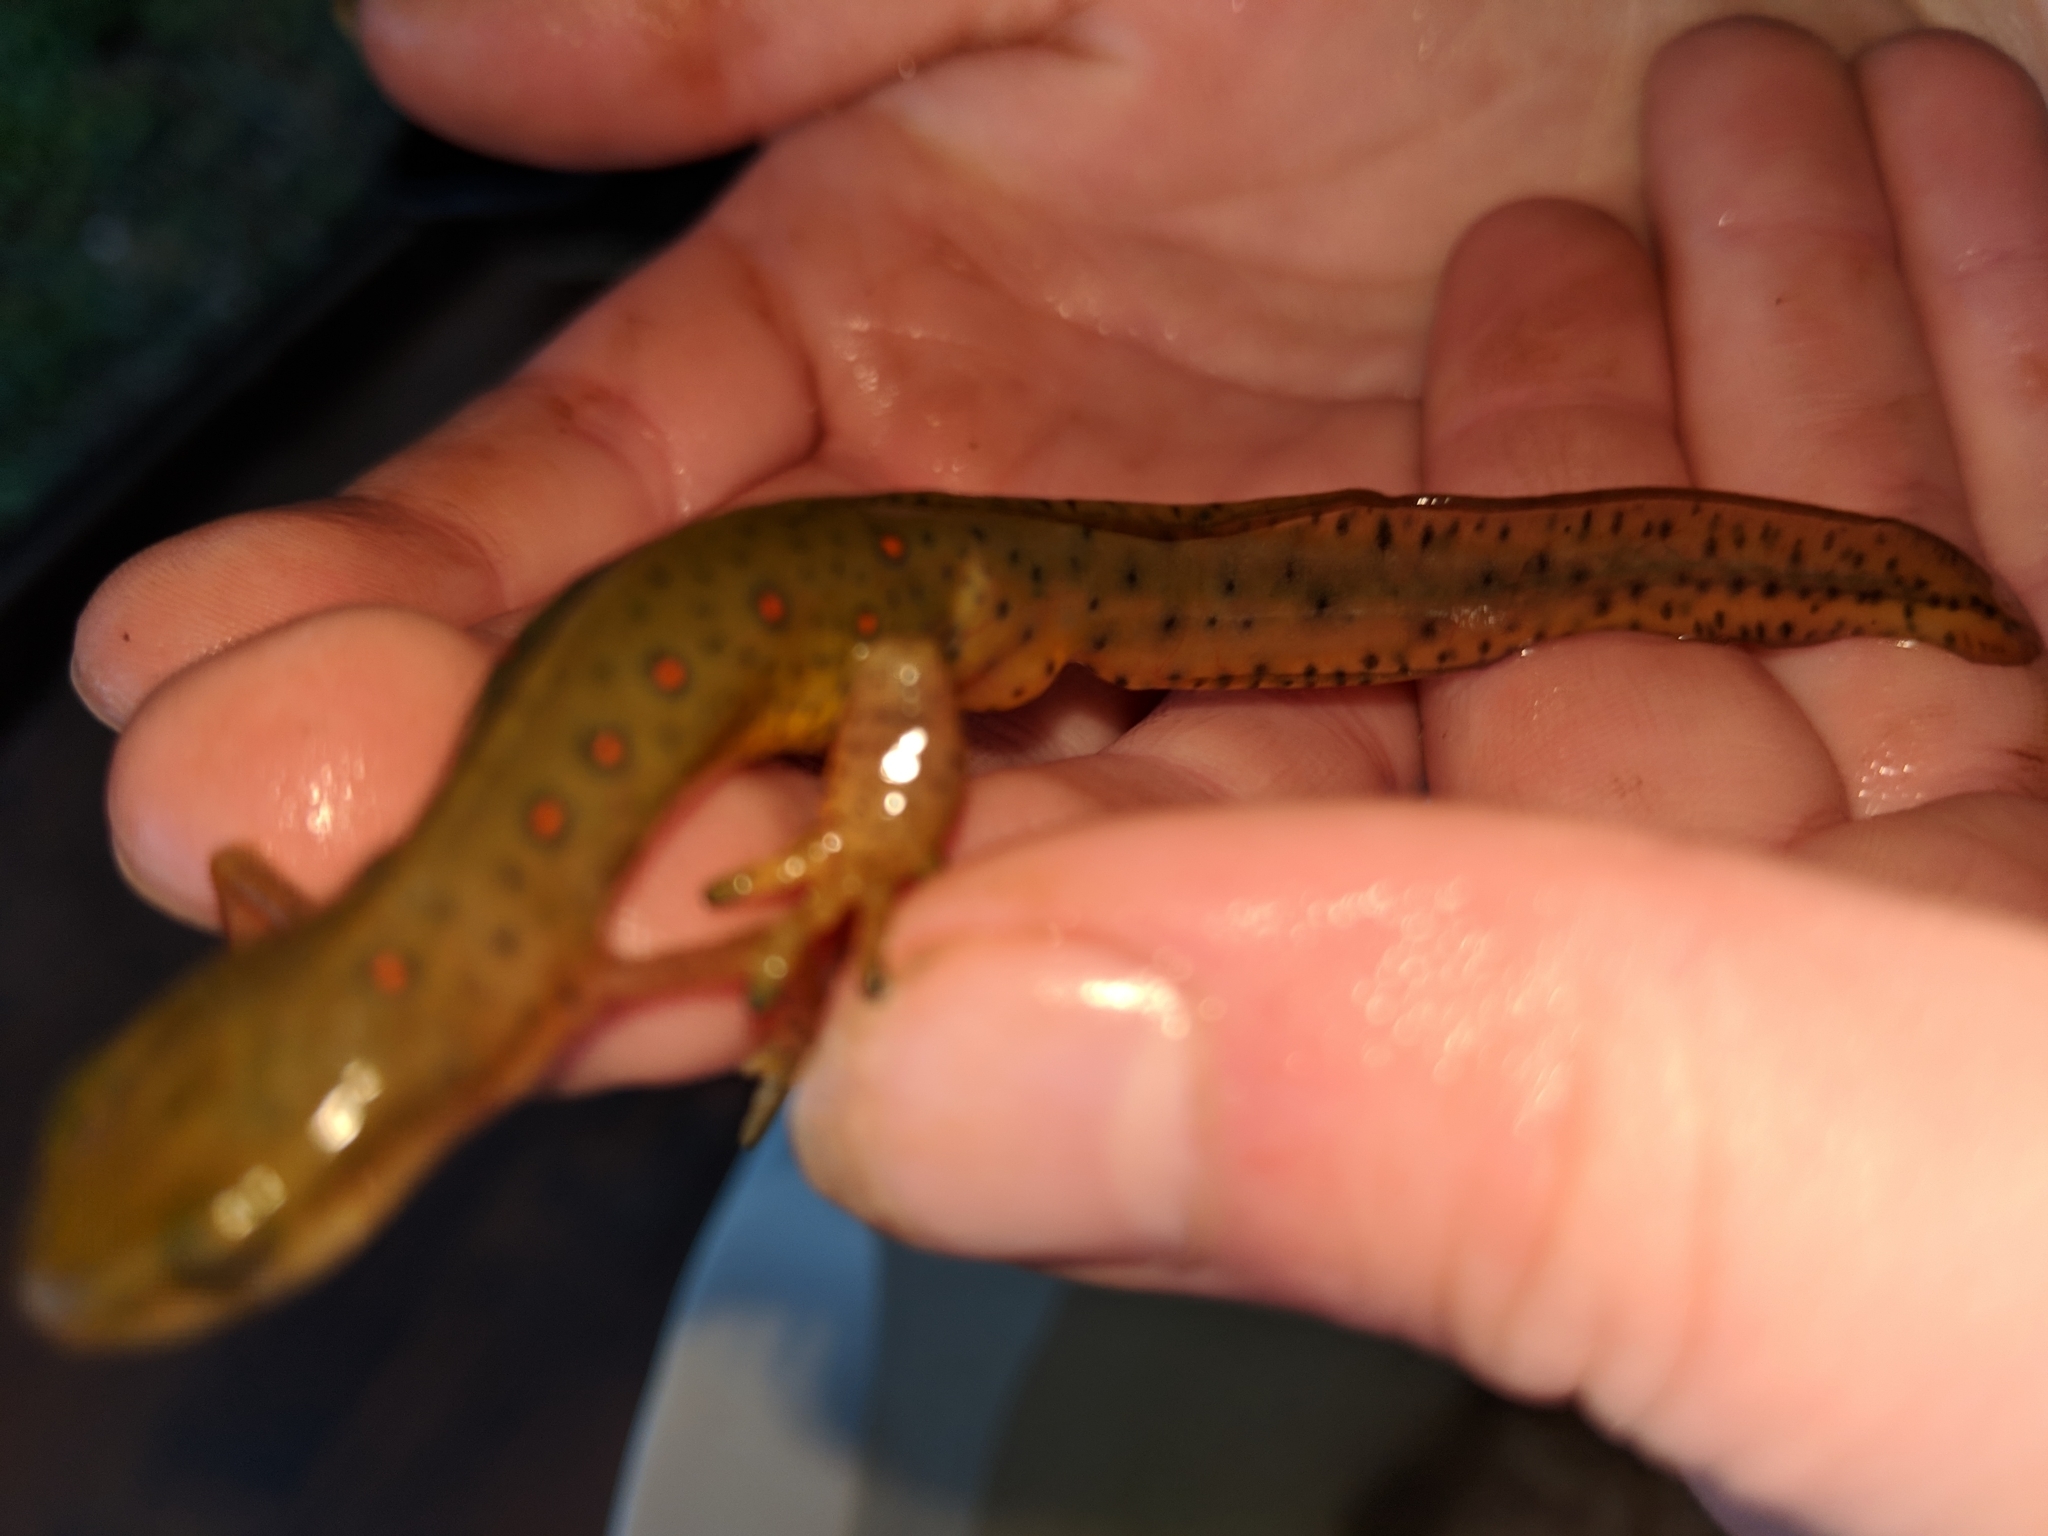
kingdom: Animalia
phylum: Chordata
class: Amphibia
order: Caudata
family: Salamandridae
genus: Notophthalmus
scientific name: Notophthalmus viridescens
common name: Eastern newt
